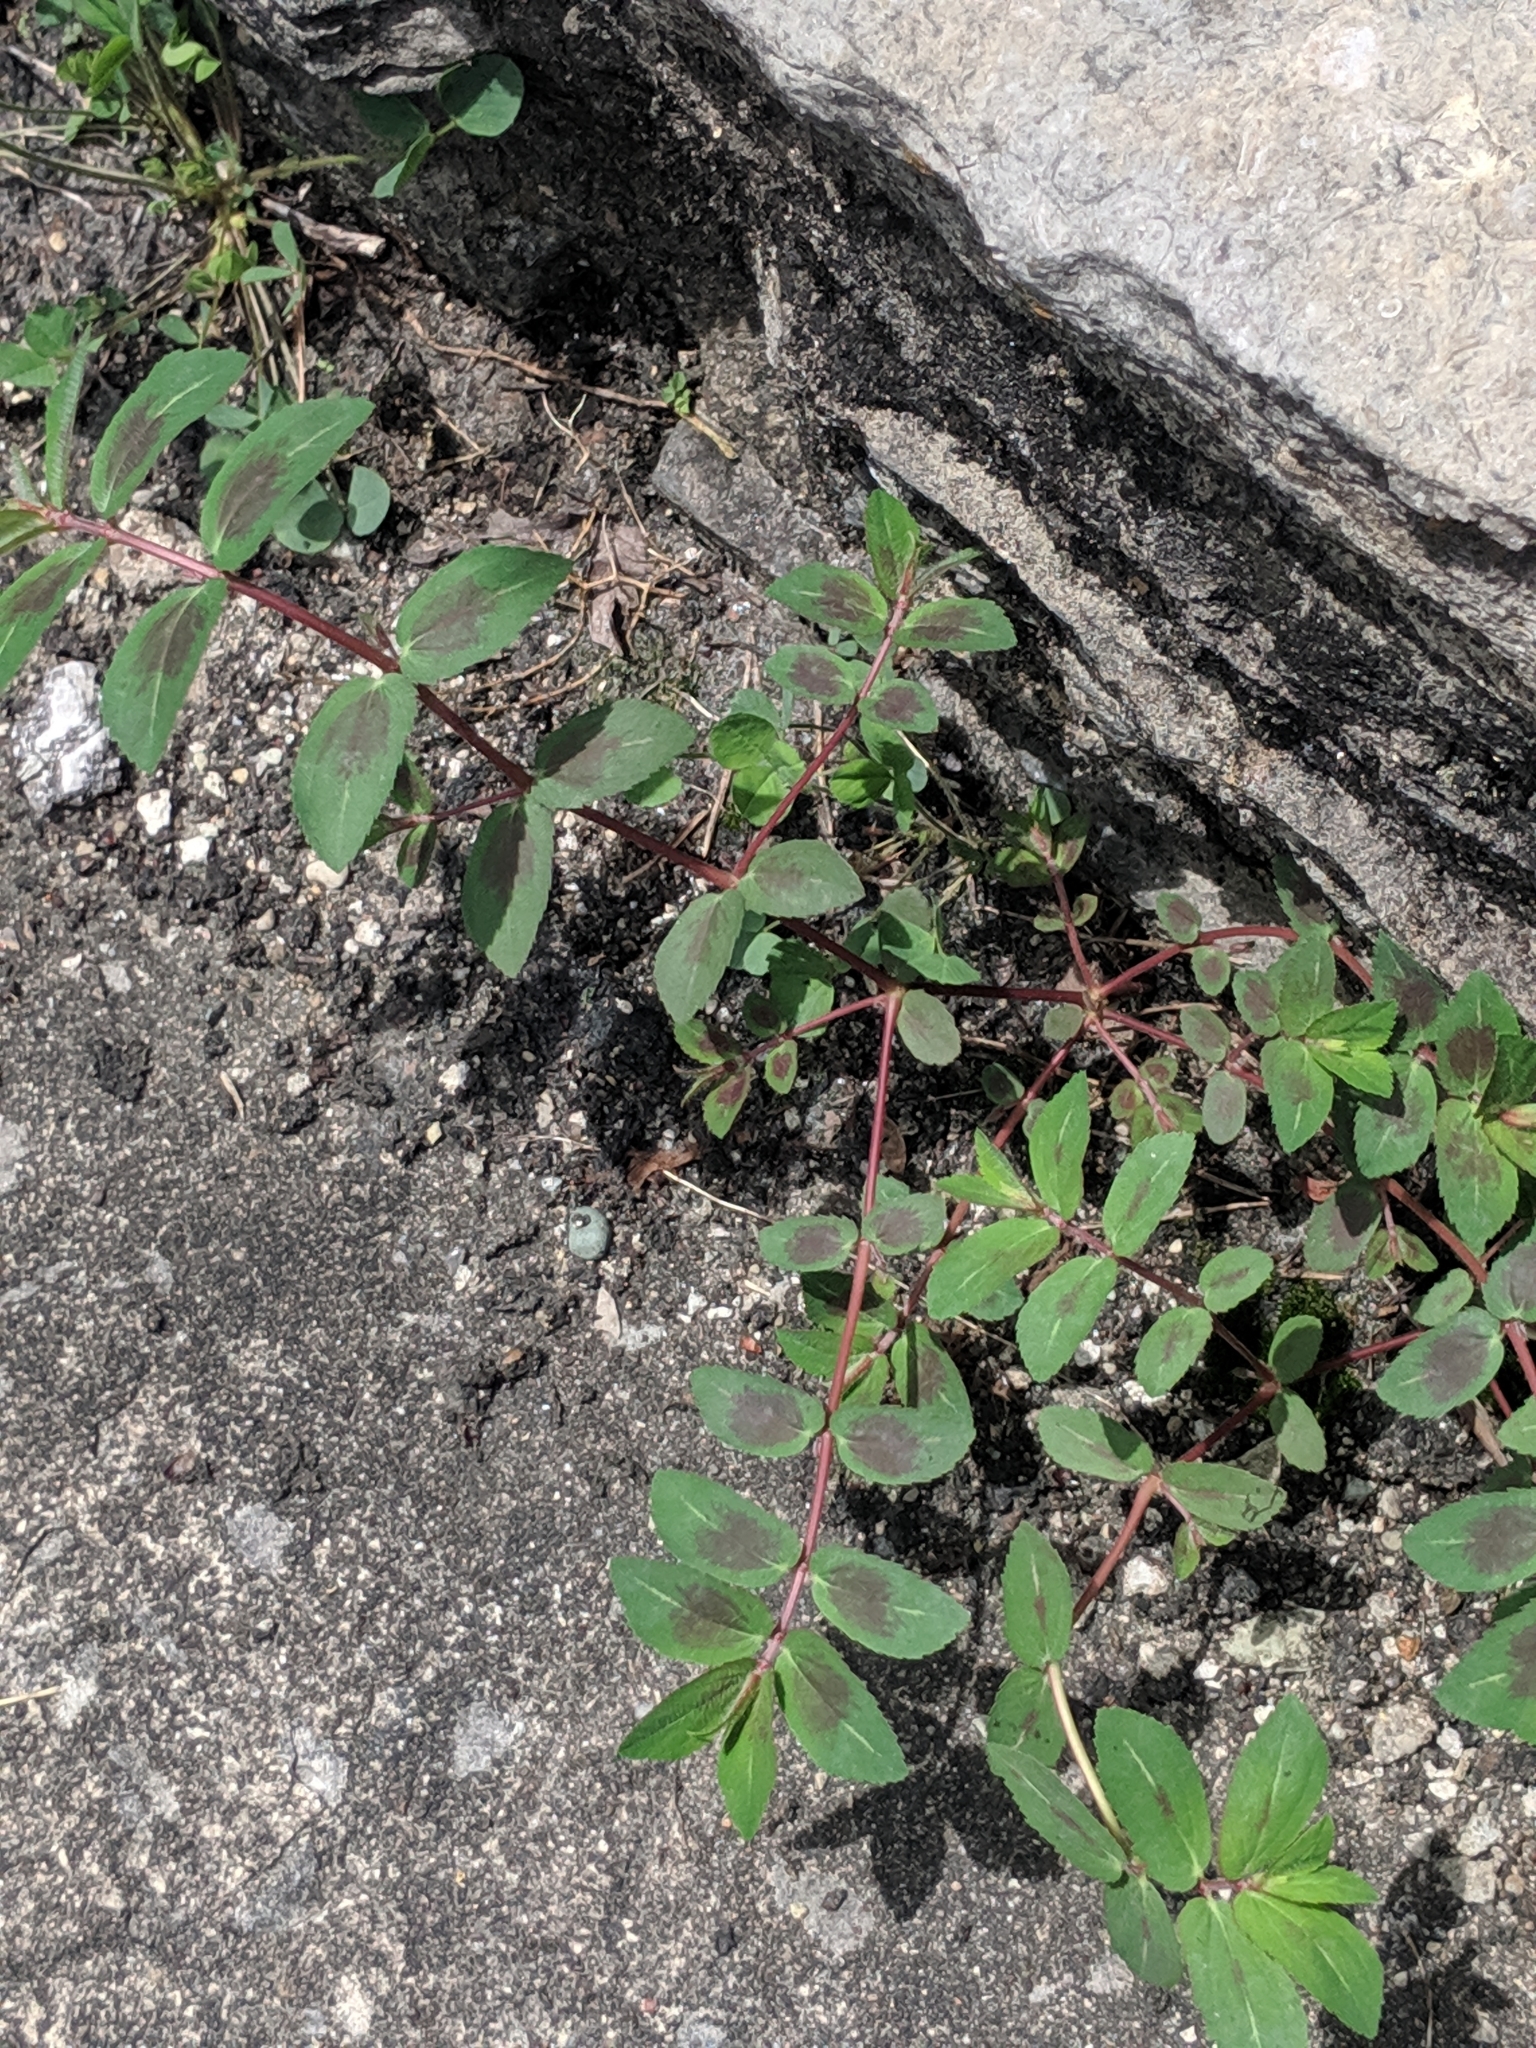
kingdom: Plantae
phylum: Tracheophyta
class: Magnoliopsida
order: Malpighiales
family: Euphorbiaceae
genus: Euphorbia
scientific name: Euphorbia nutans
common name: Eyebane
